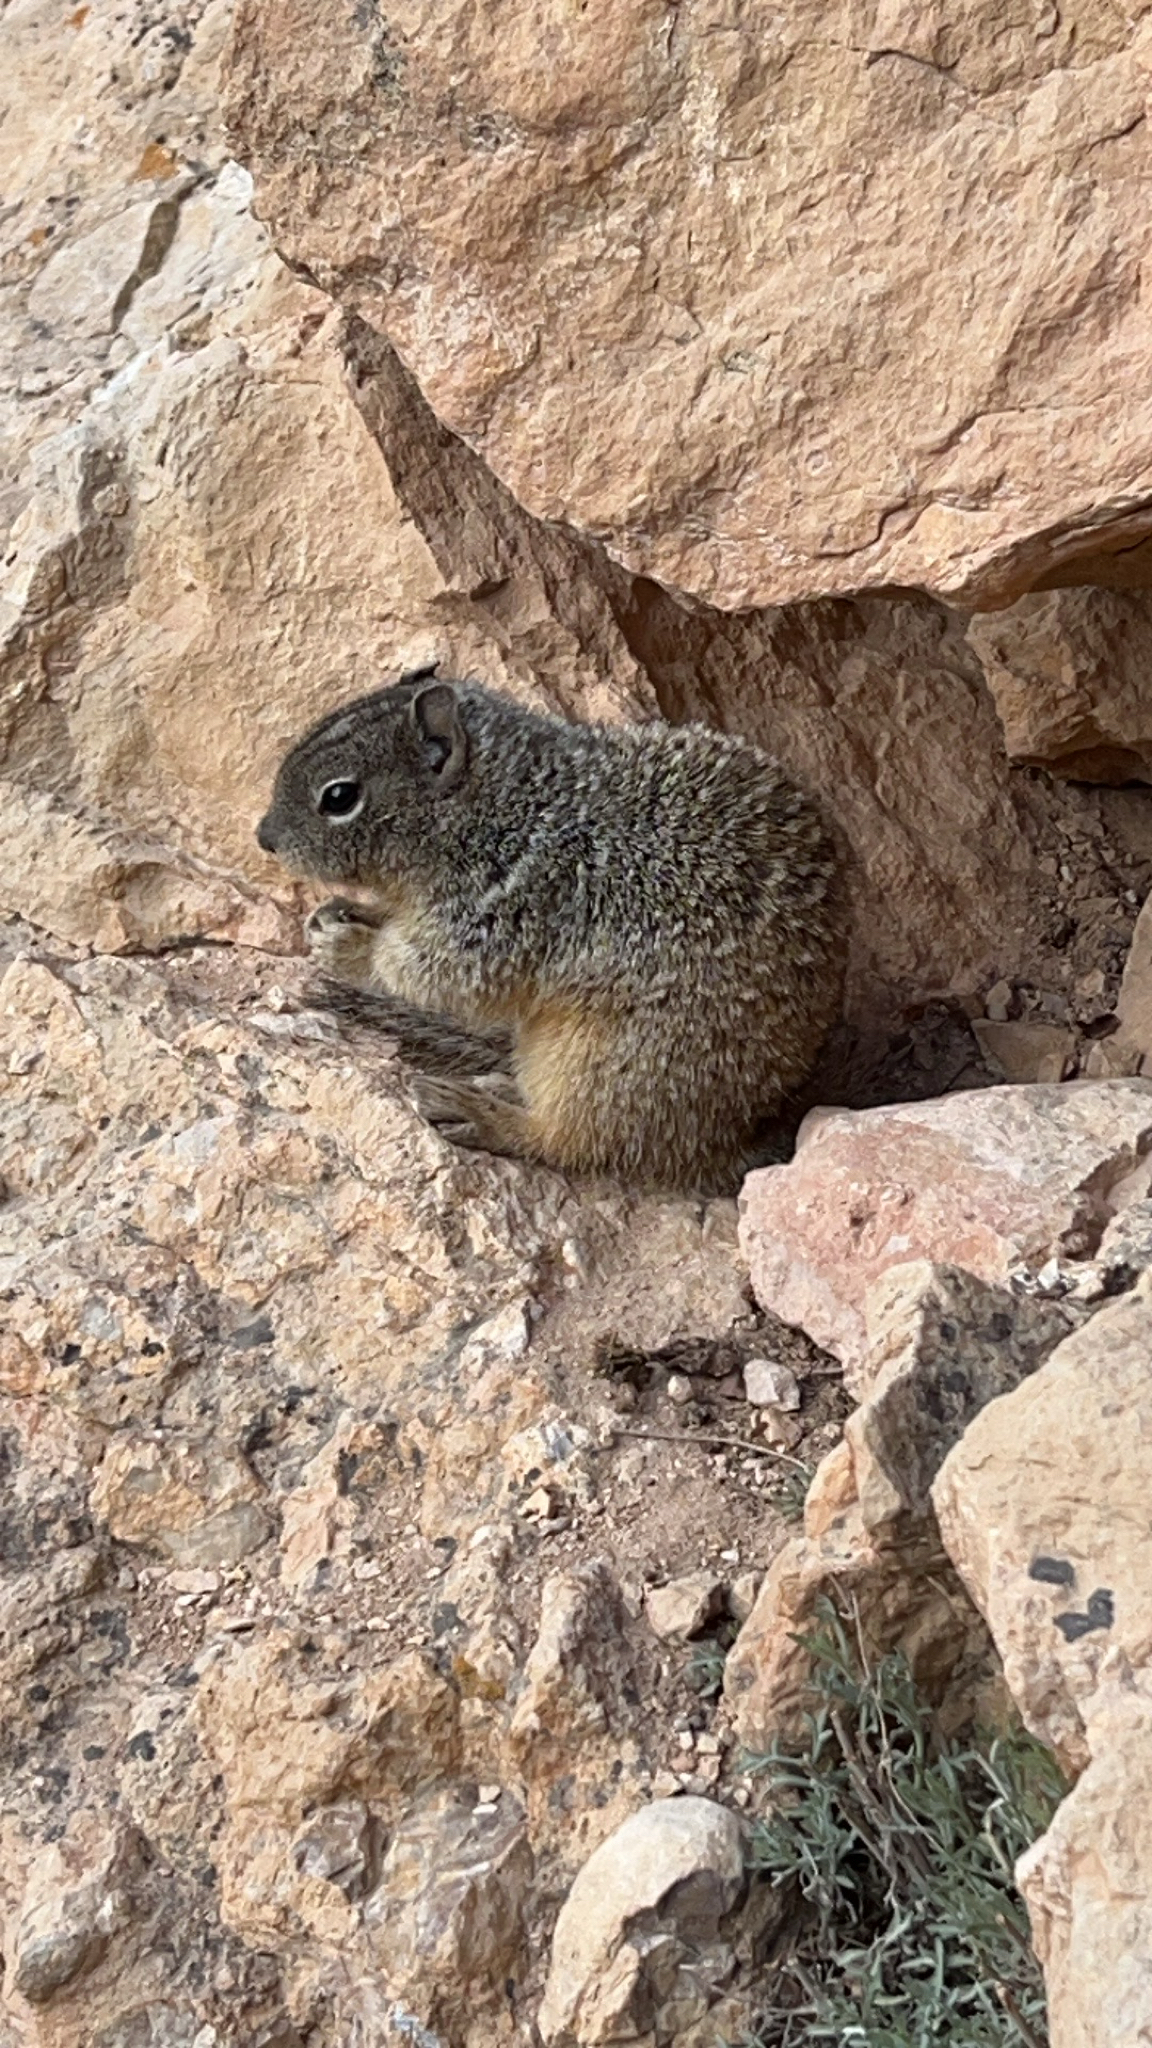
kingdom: Animalia
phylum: Chordata
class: Mammalia
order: Rodentia
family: Sciuridae
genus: Otospermophilus
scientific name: Otospermophilus variegatus
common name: Rock squirrel
